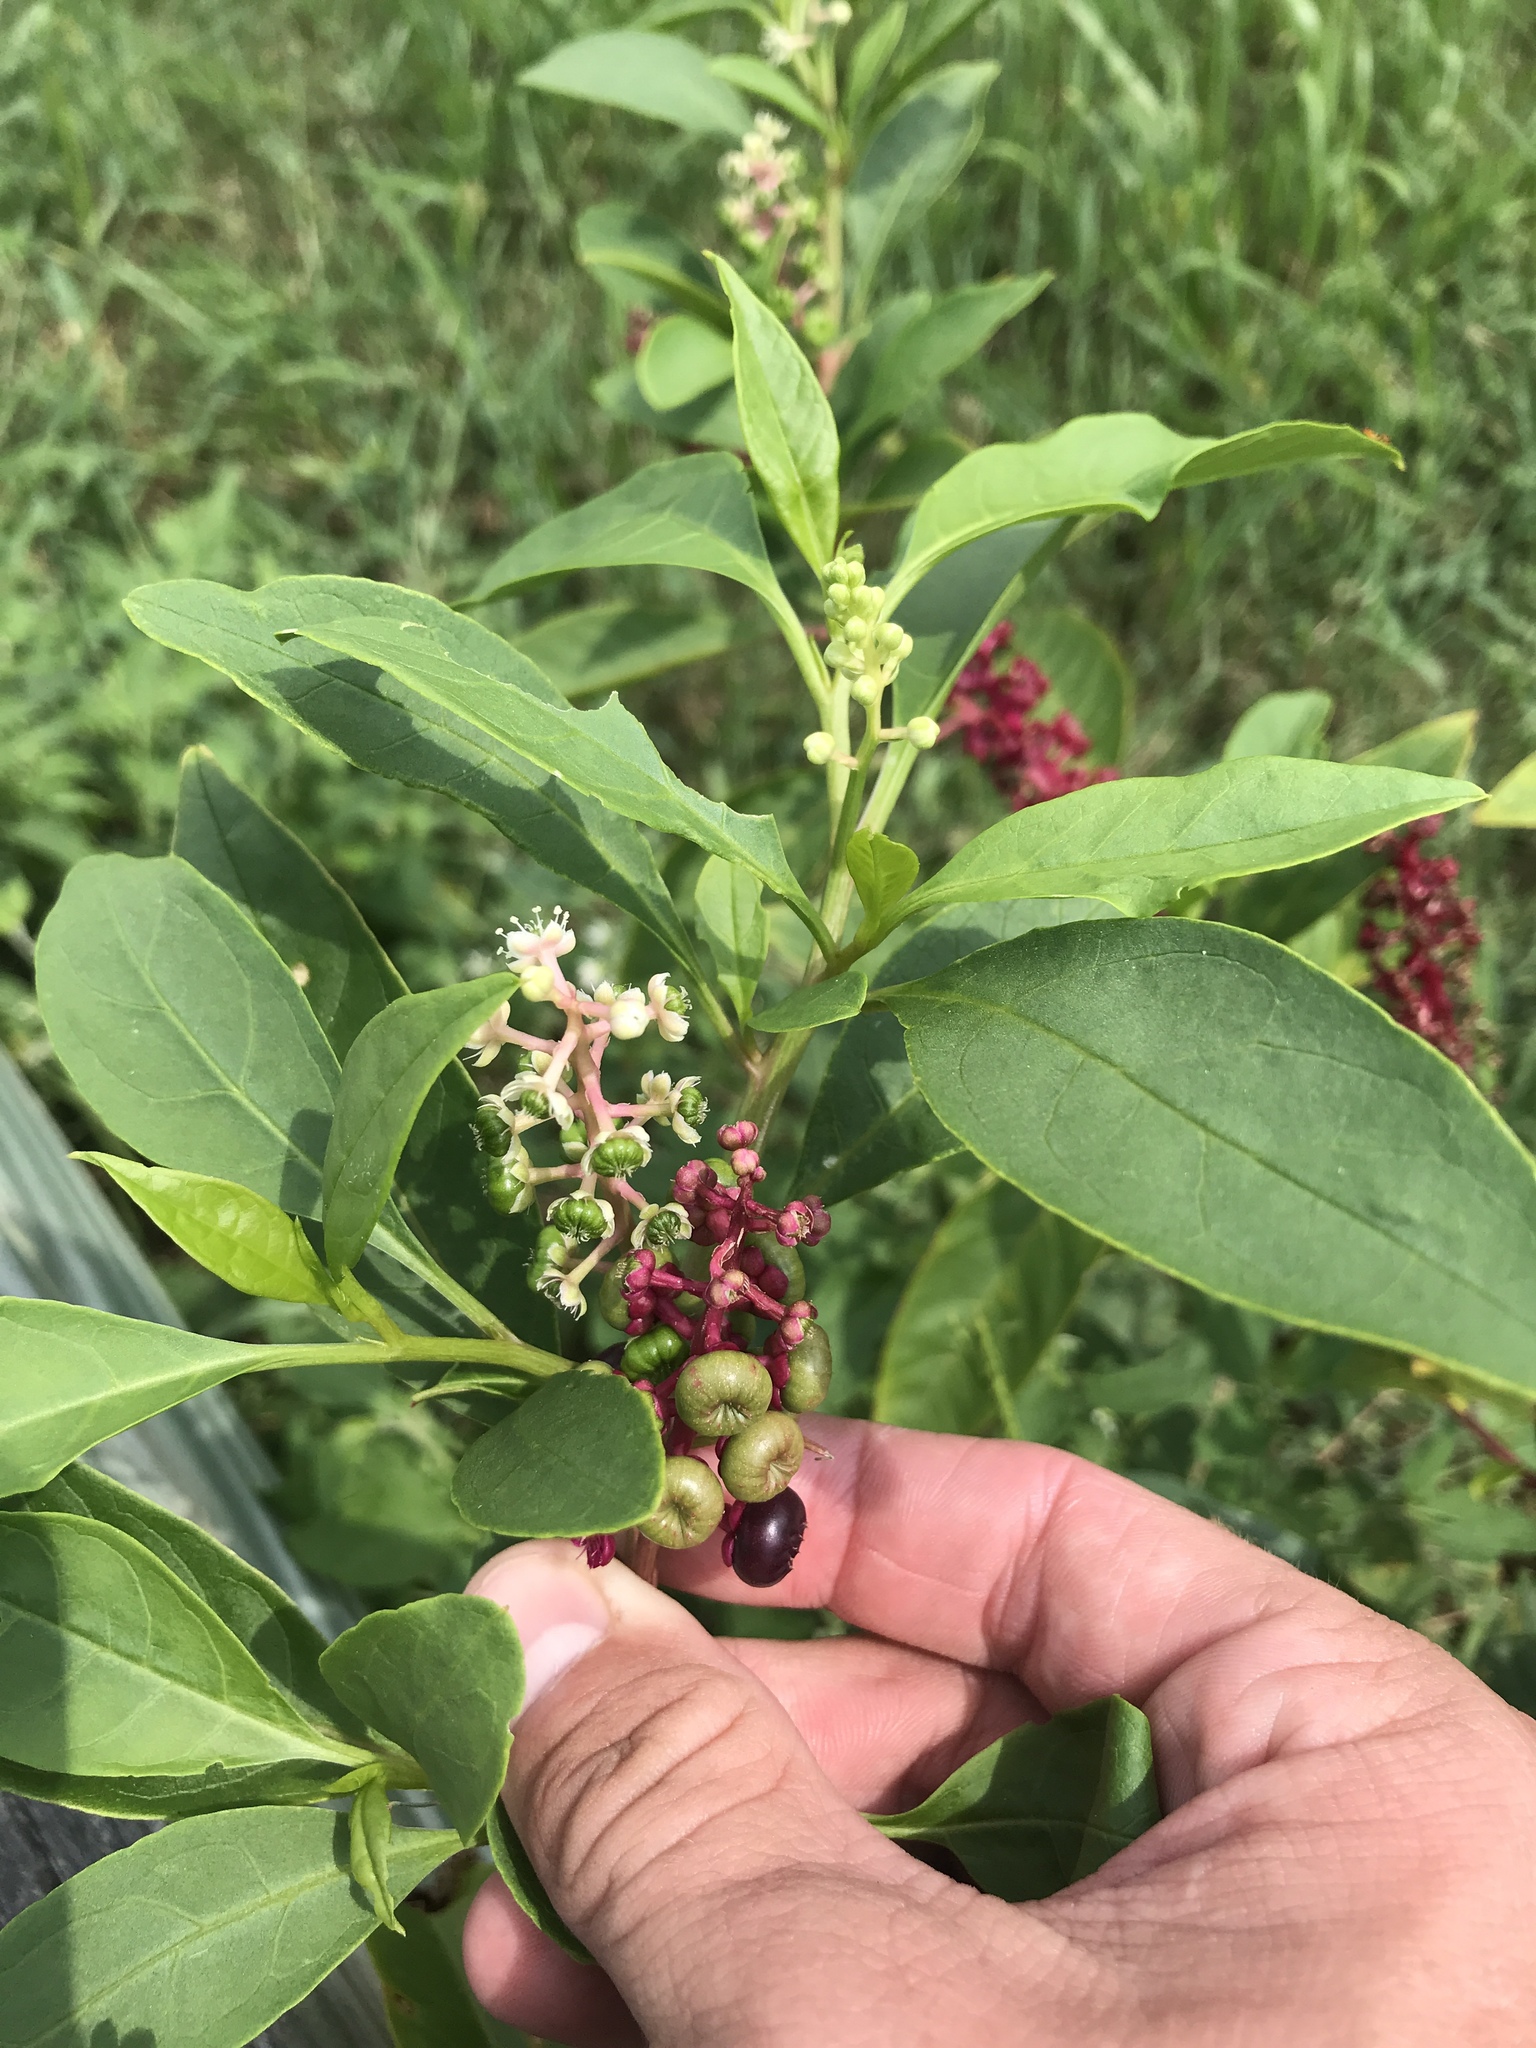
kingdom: Plantae
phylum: Tracheophyta
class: Magnoliopsida
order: Caryophyllales
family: Phytolaccaceae
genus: Phytolacca
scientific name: Phytolacca americana
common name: American pokeweed
